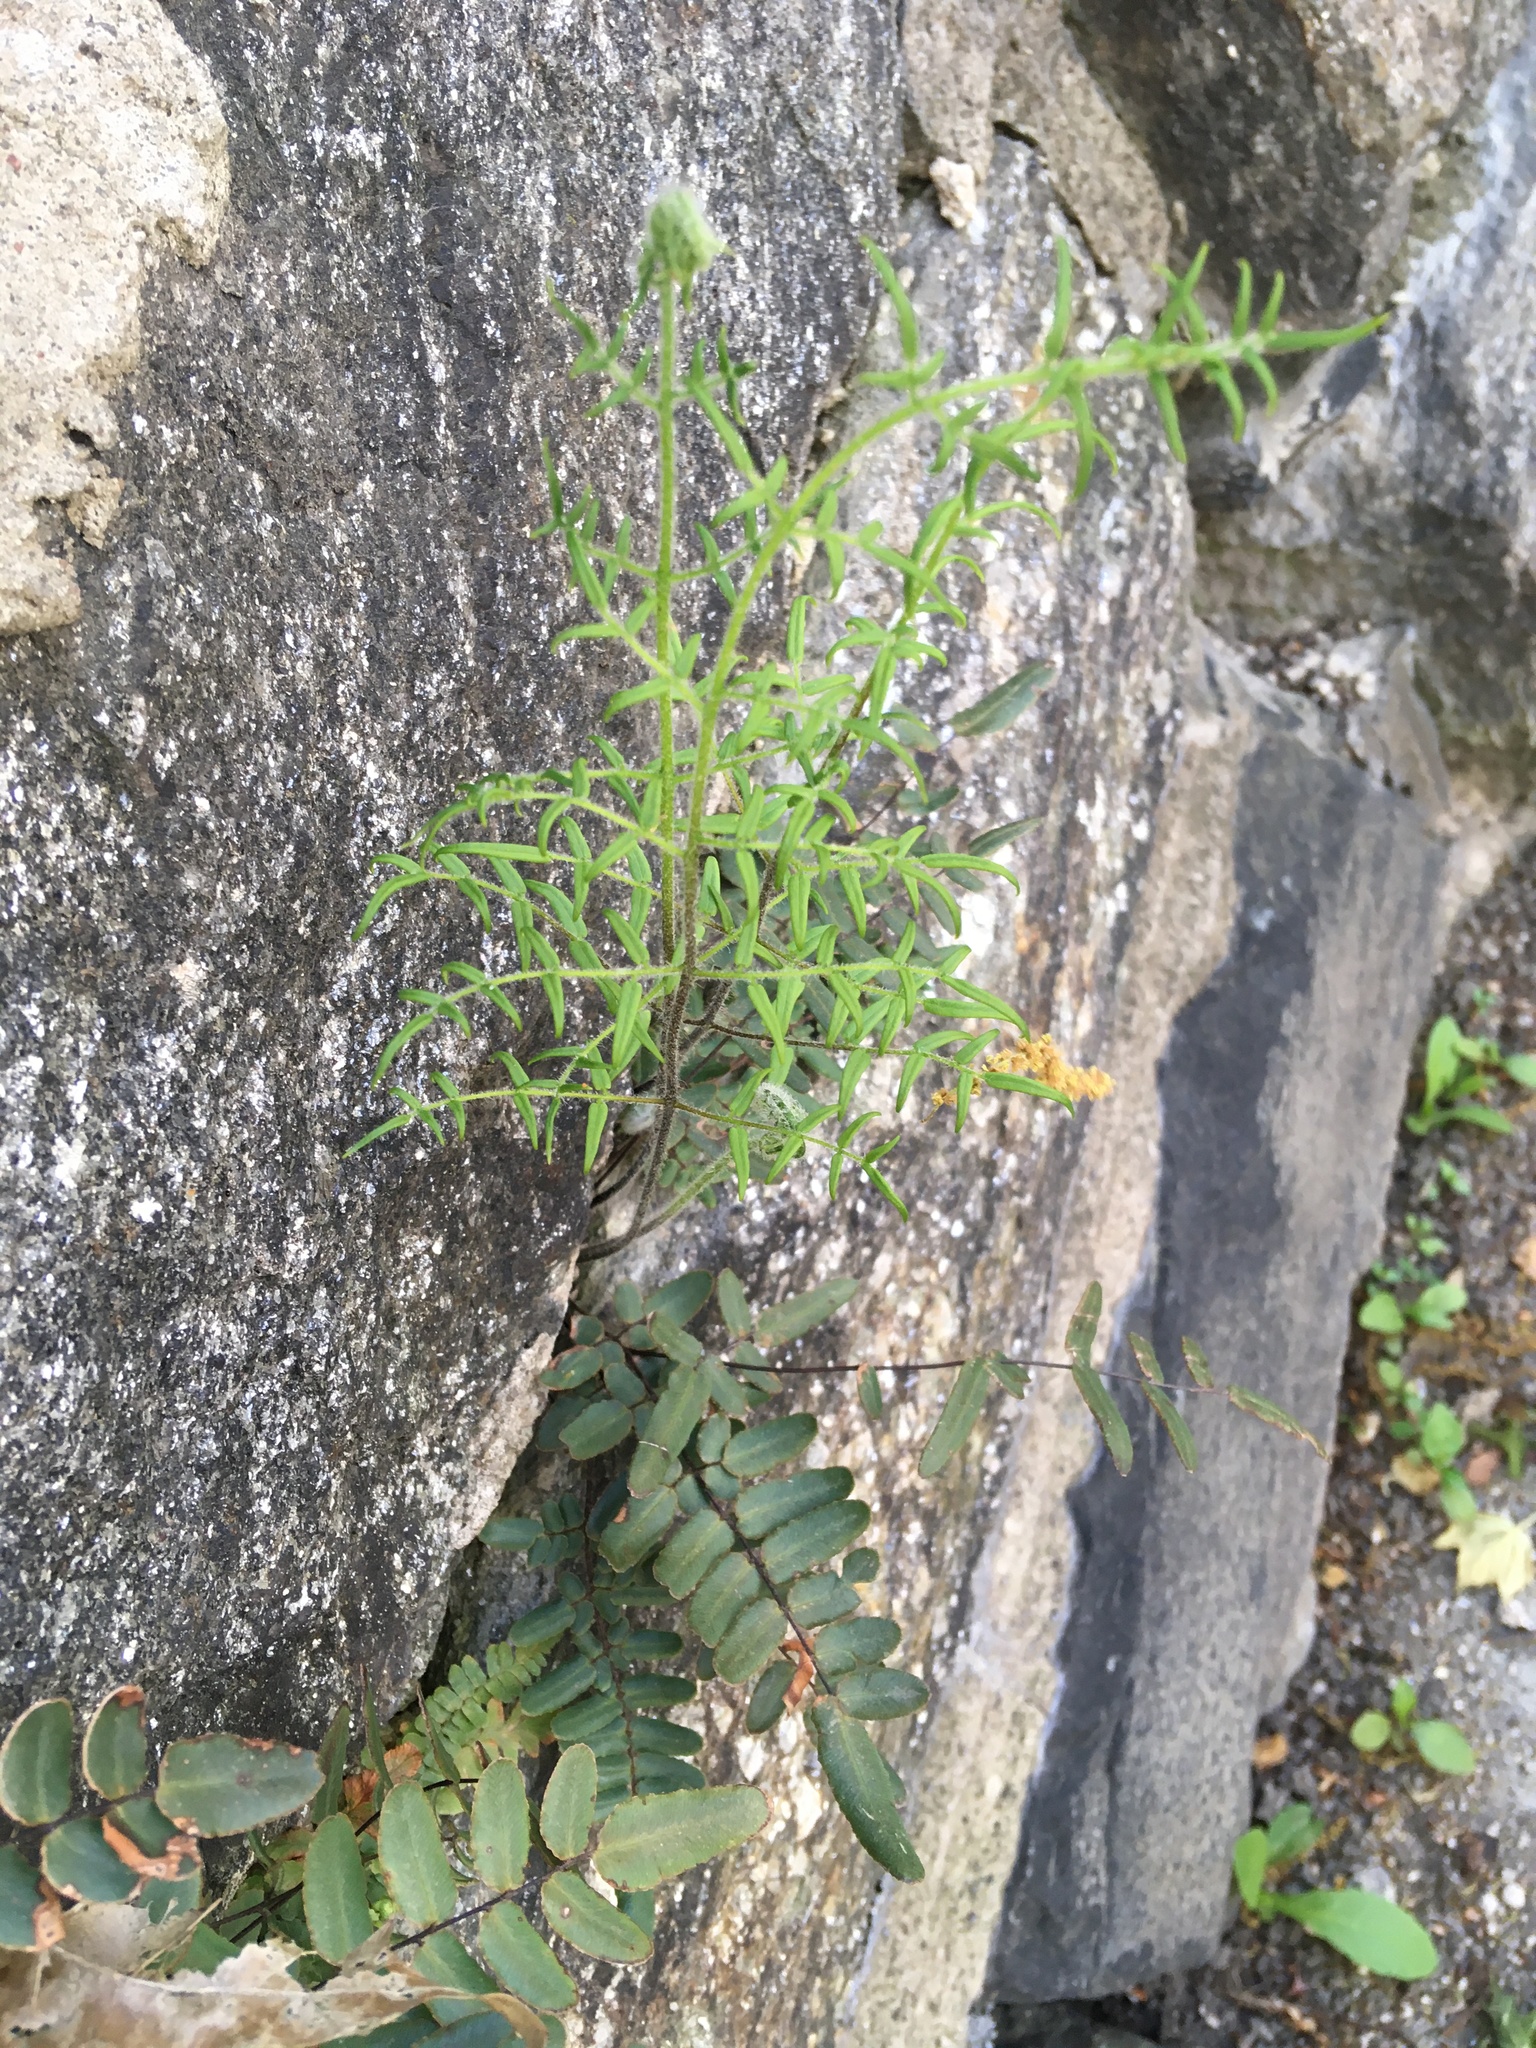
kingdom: Plantae
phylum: Tracheophyta
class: Polypodiopsida
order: Polypodiales
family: Pteridaceae
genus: Pellaea
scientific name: Pellaea atropurpurea
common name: Hairy cliffbrake
